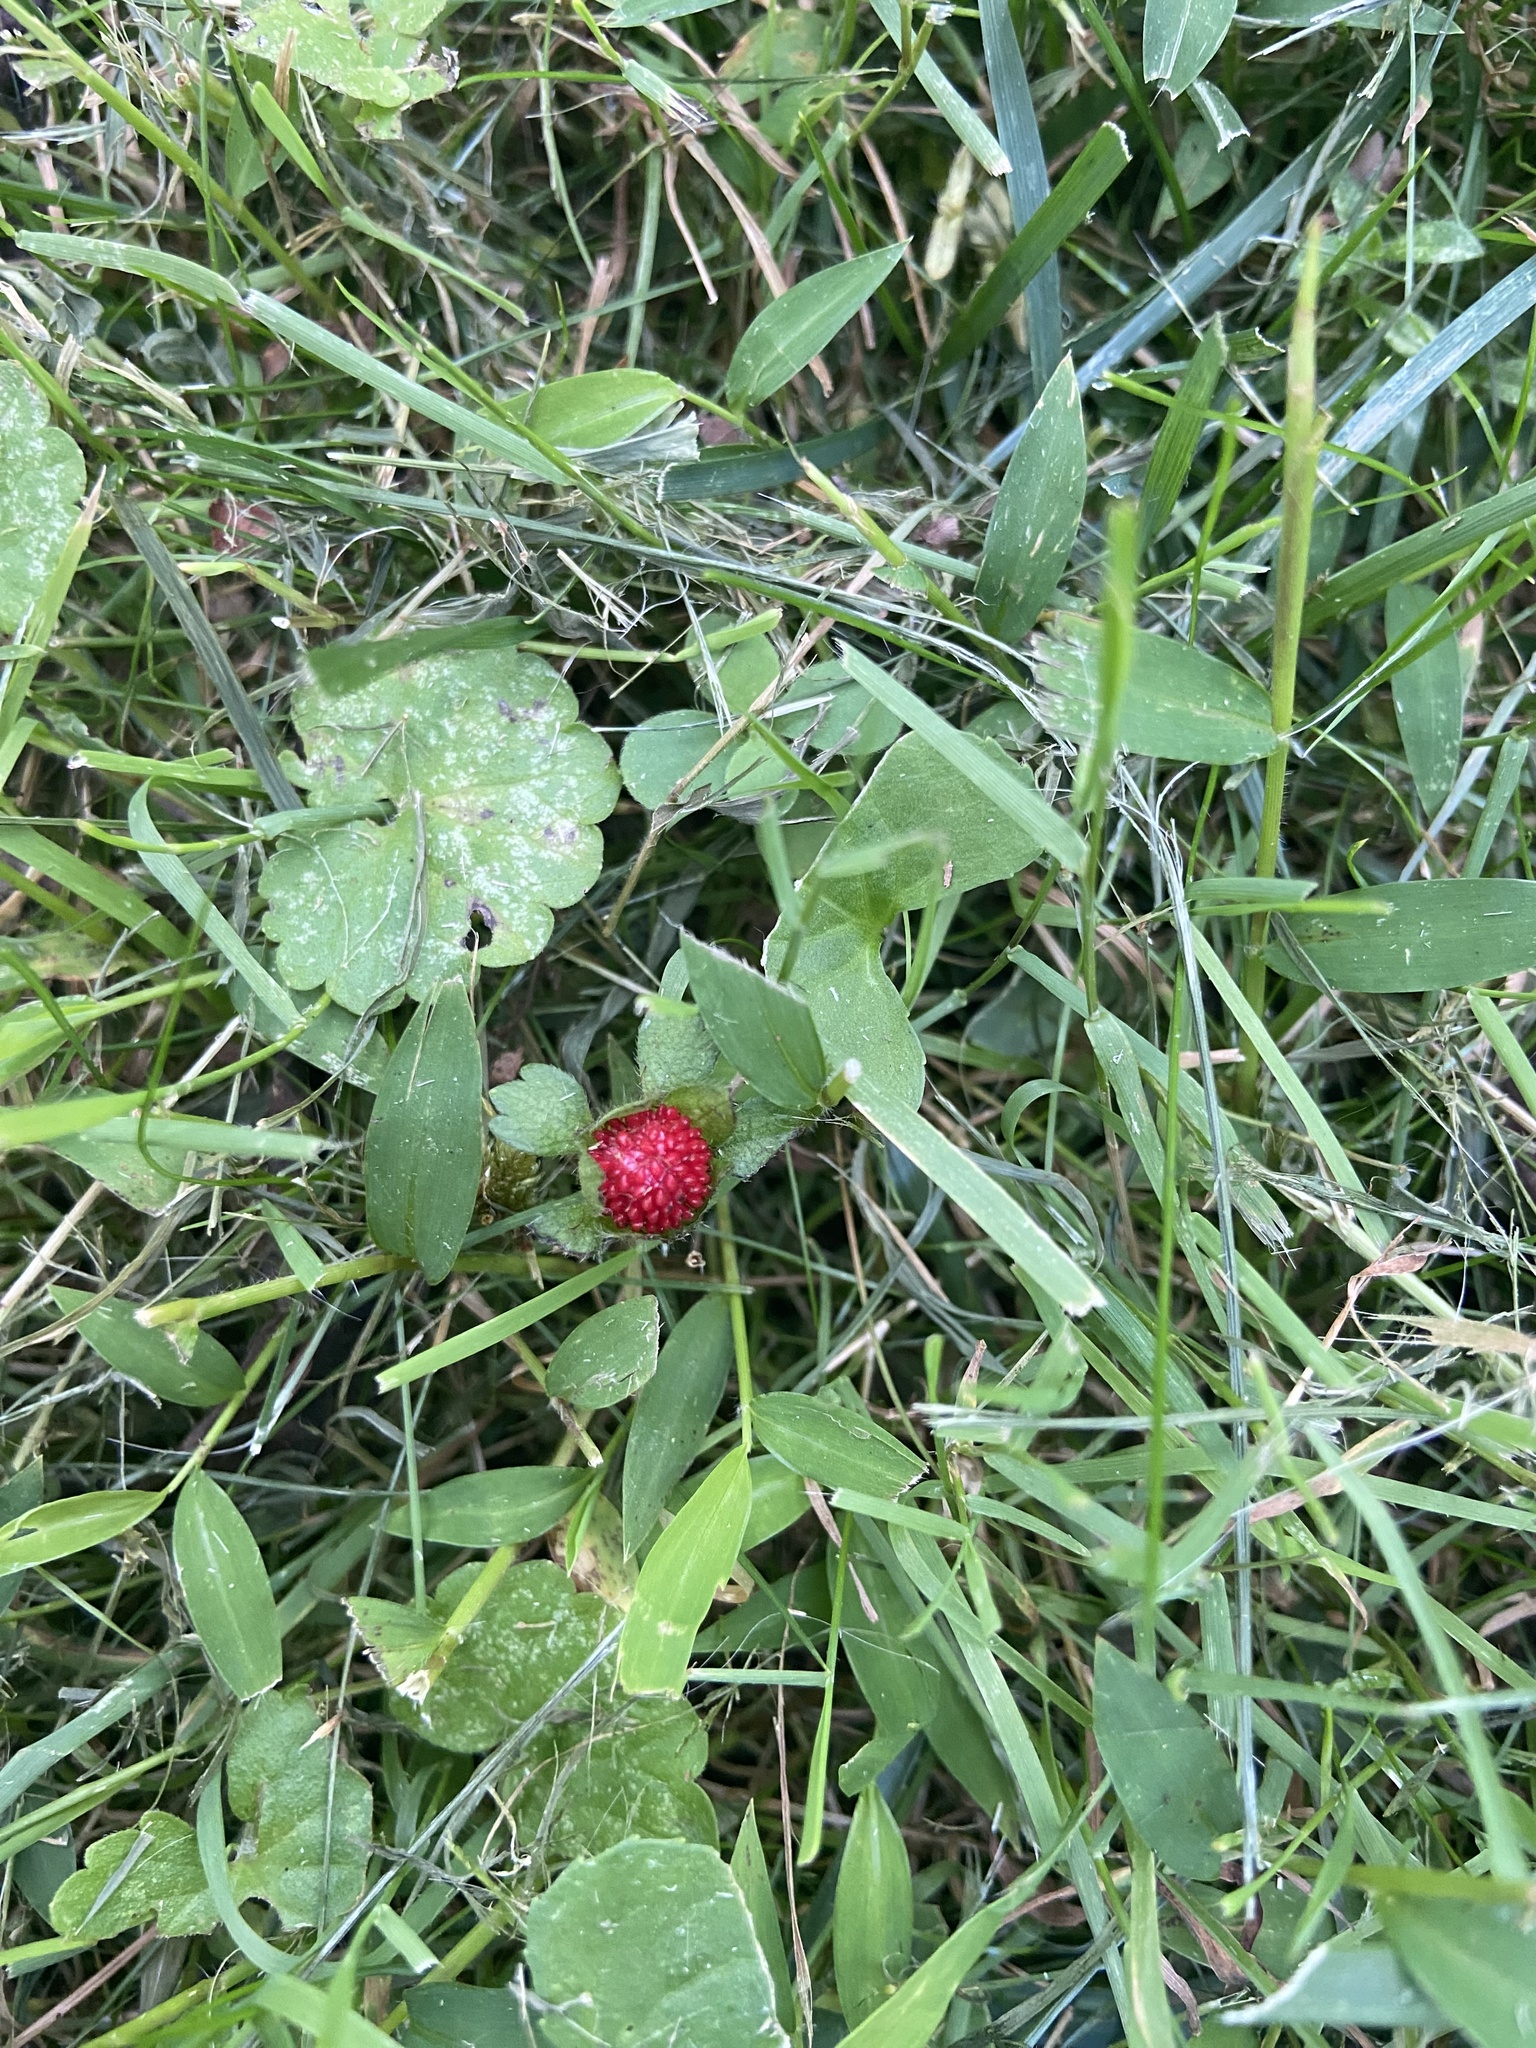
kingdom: Plantae
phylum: Tracheophyta
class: Magnoliopsida
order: Rosales
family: Rosaceae
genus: Potentilla
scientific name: Potentilla indica
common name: Yellow-flowered strawberry
